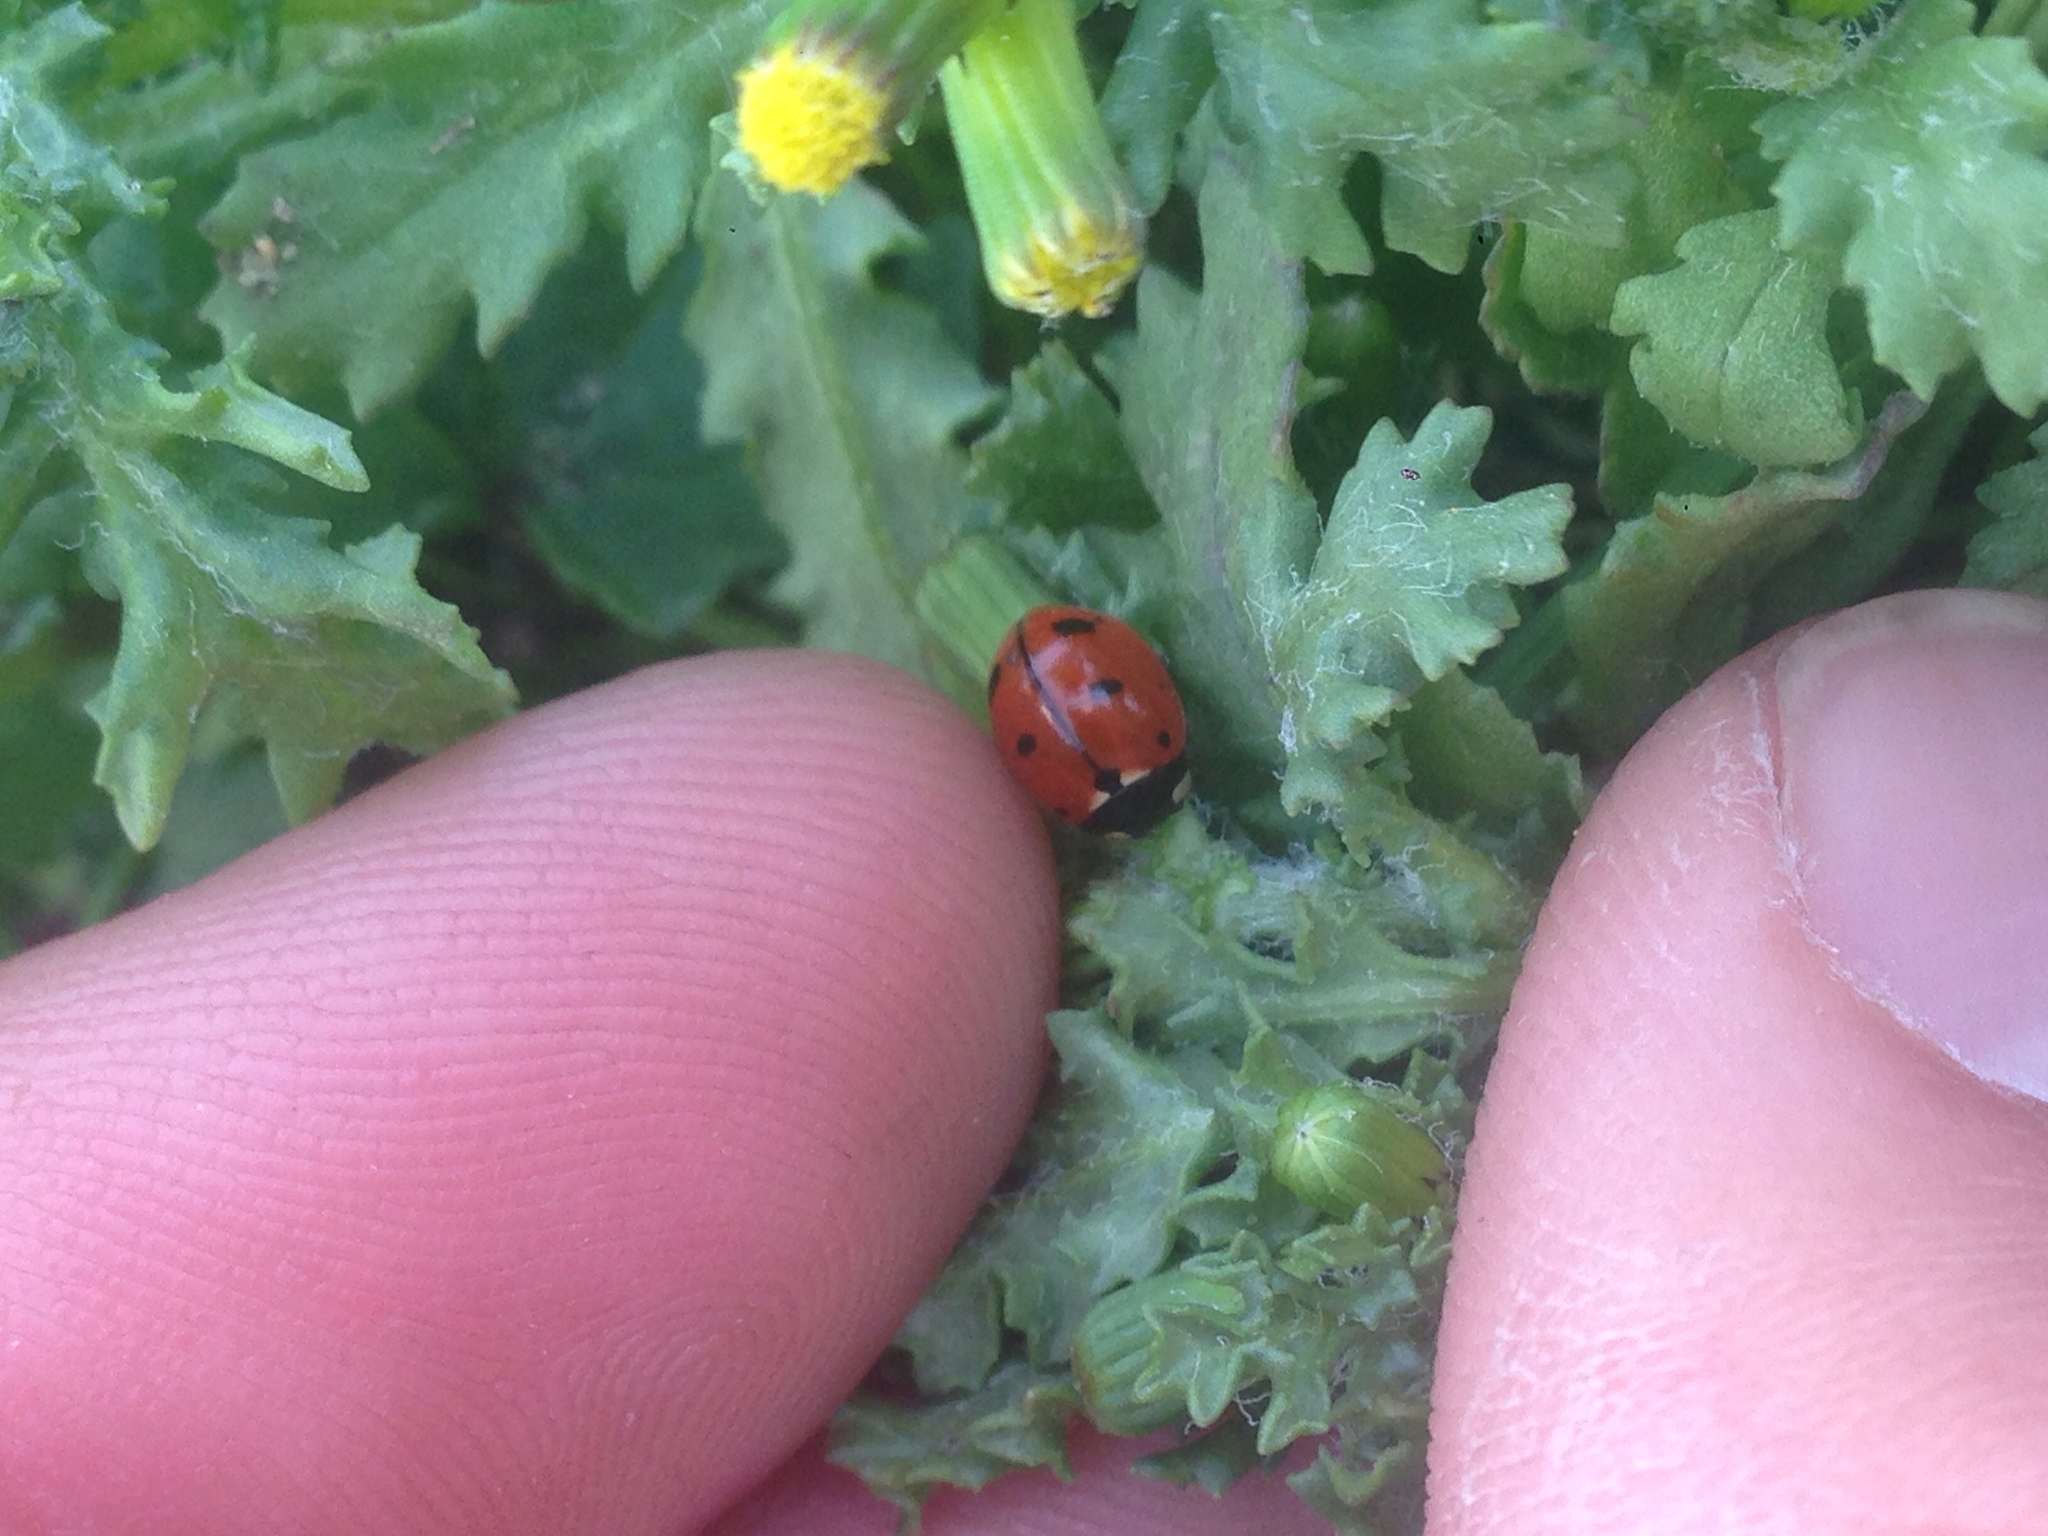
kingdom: Animalia
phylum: Arthropoda
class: Insecta
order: Coleoptera
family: Coccinellidae
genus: Coccinella
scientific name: Coccinella californica
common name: Lady beetle
